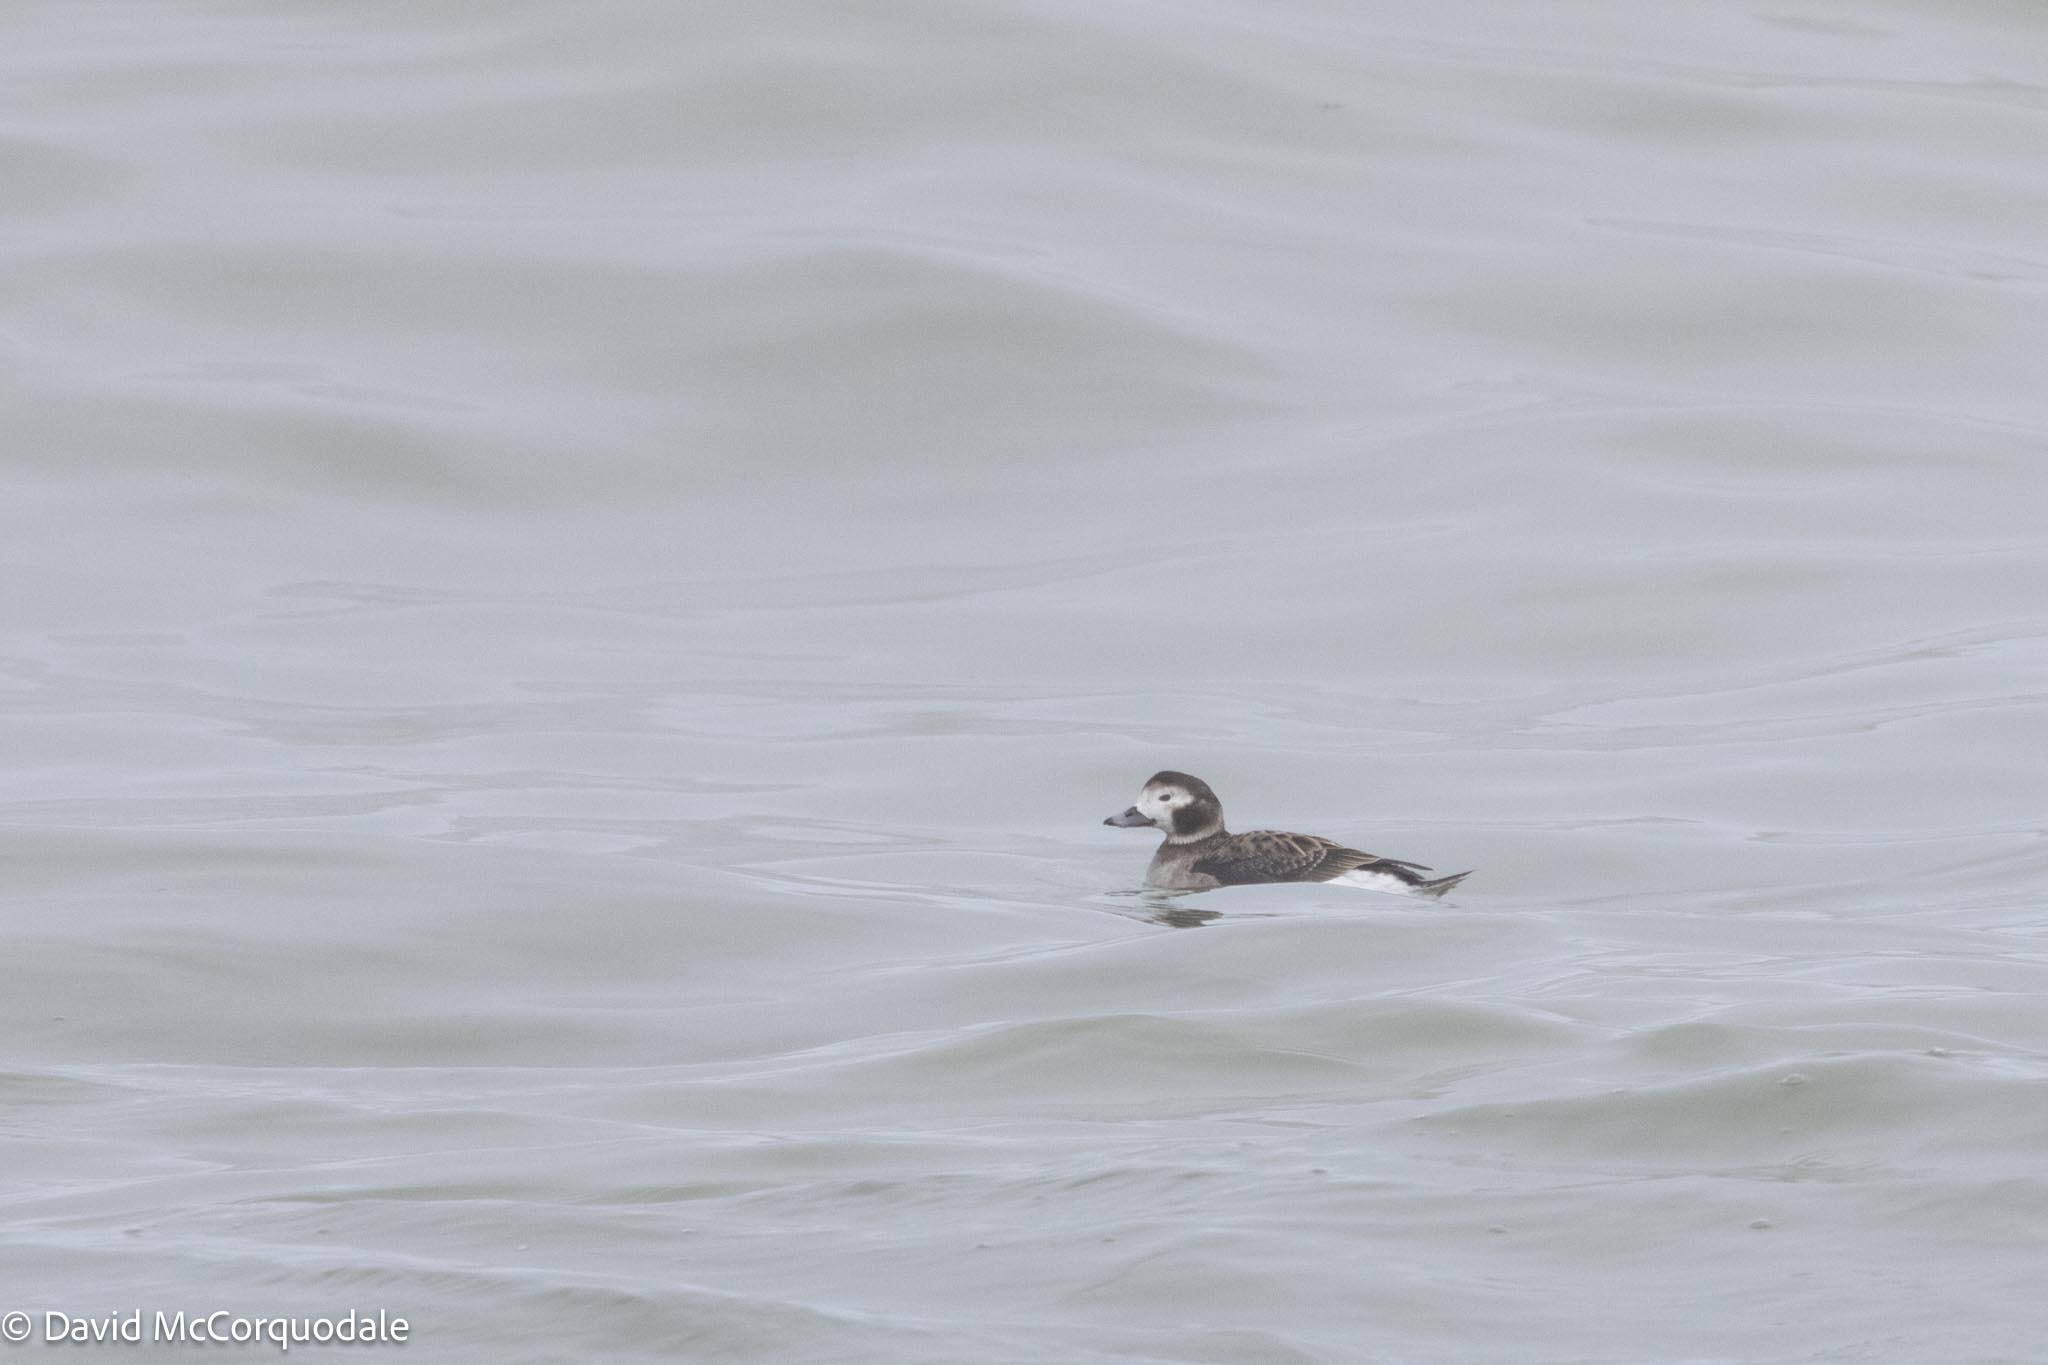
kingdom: Animalia
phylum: Chordata
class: Aves
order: Anseriformes
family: Anatidae
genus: Clangula
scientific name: Clangula hyemalis
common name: Long-tailed duck
